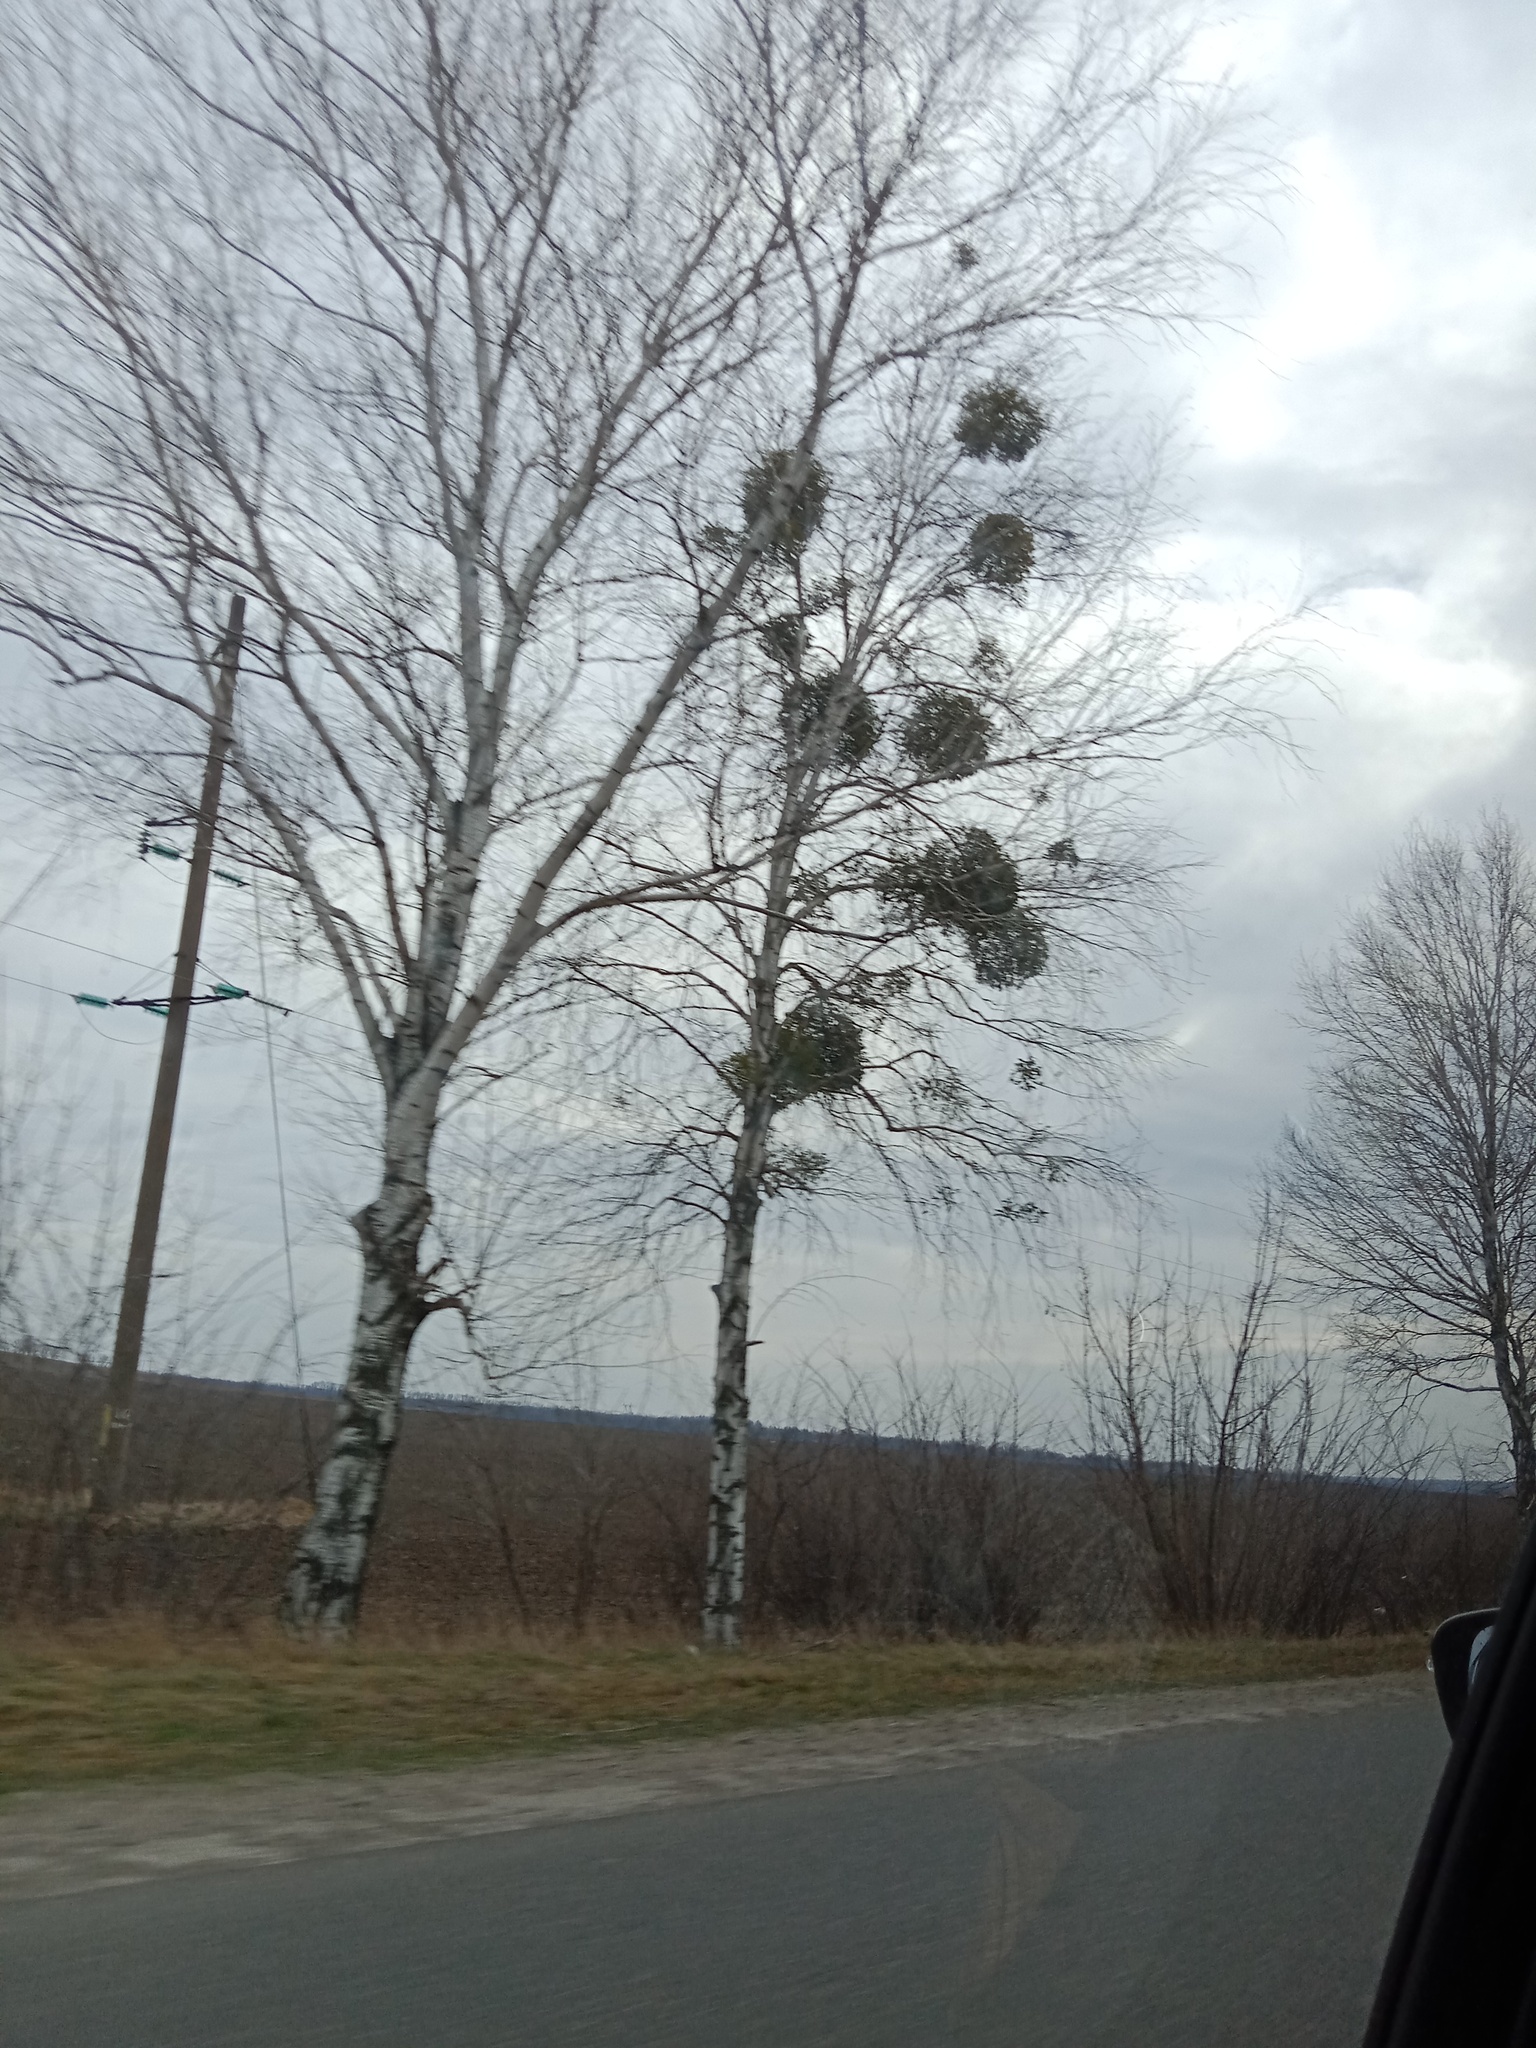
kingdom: Plantae
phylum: Tracheophyta
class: Magnoliopsida
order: Santalales
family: Viscaceae
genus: Viscum
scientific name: Viscum album
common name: Mistletoe
